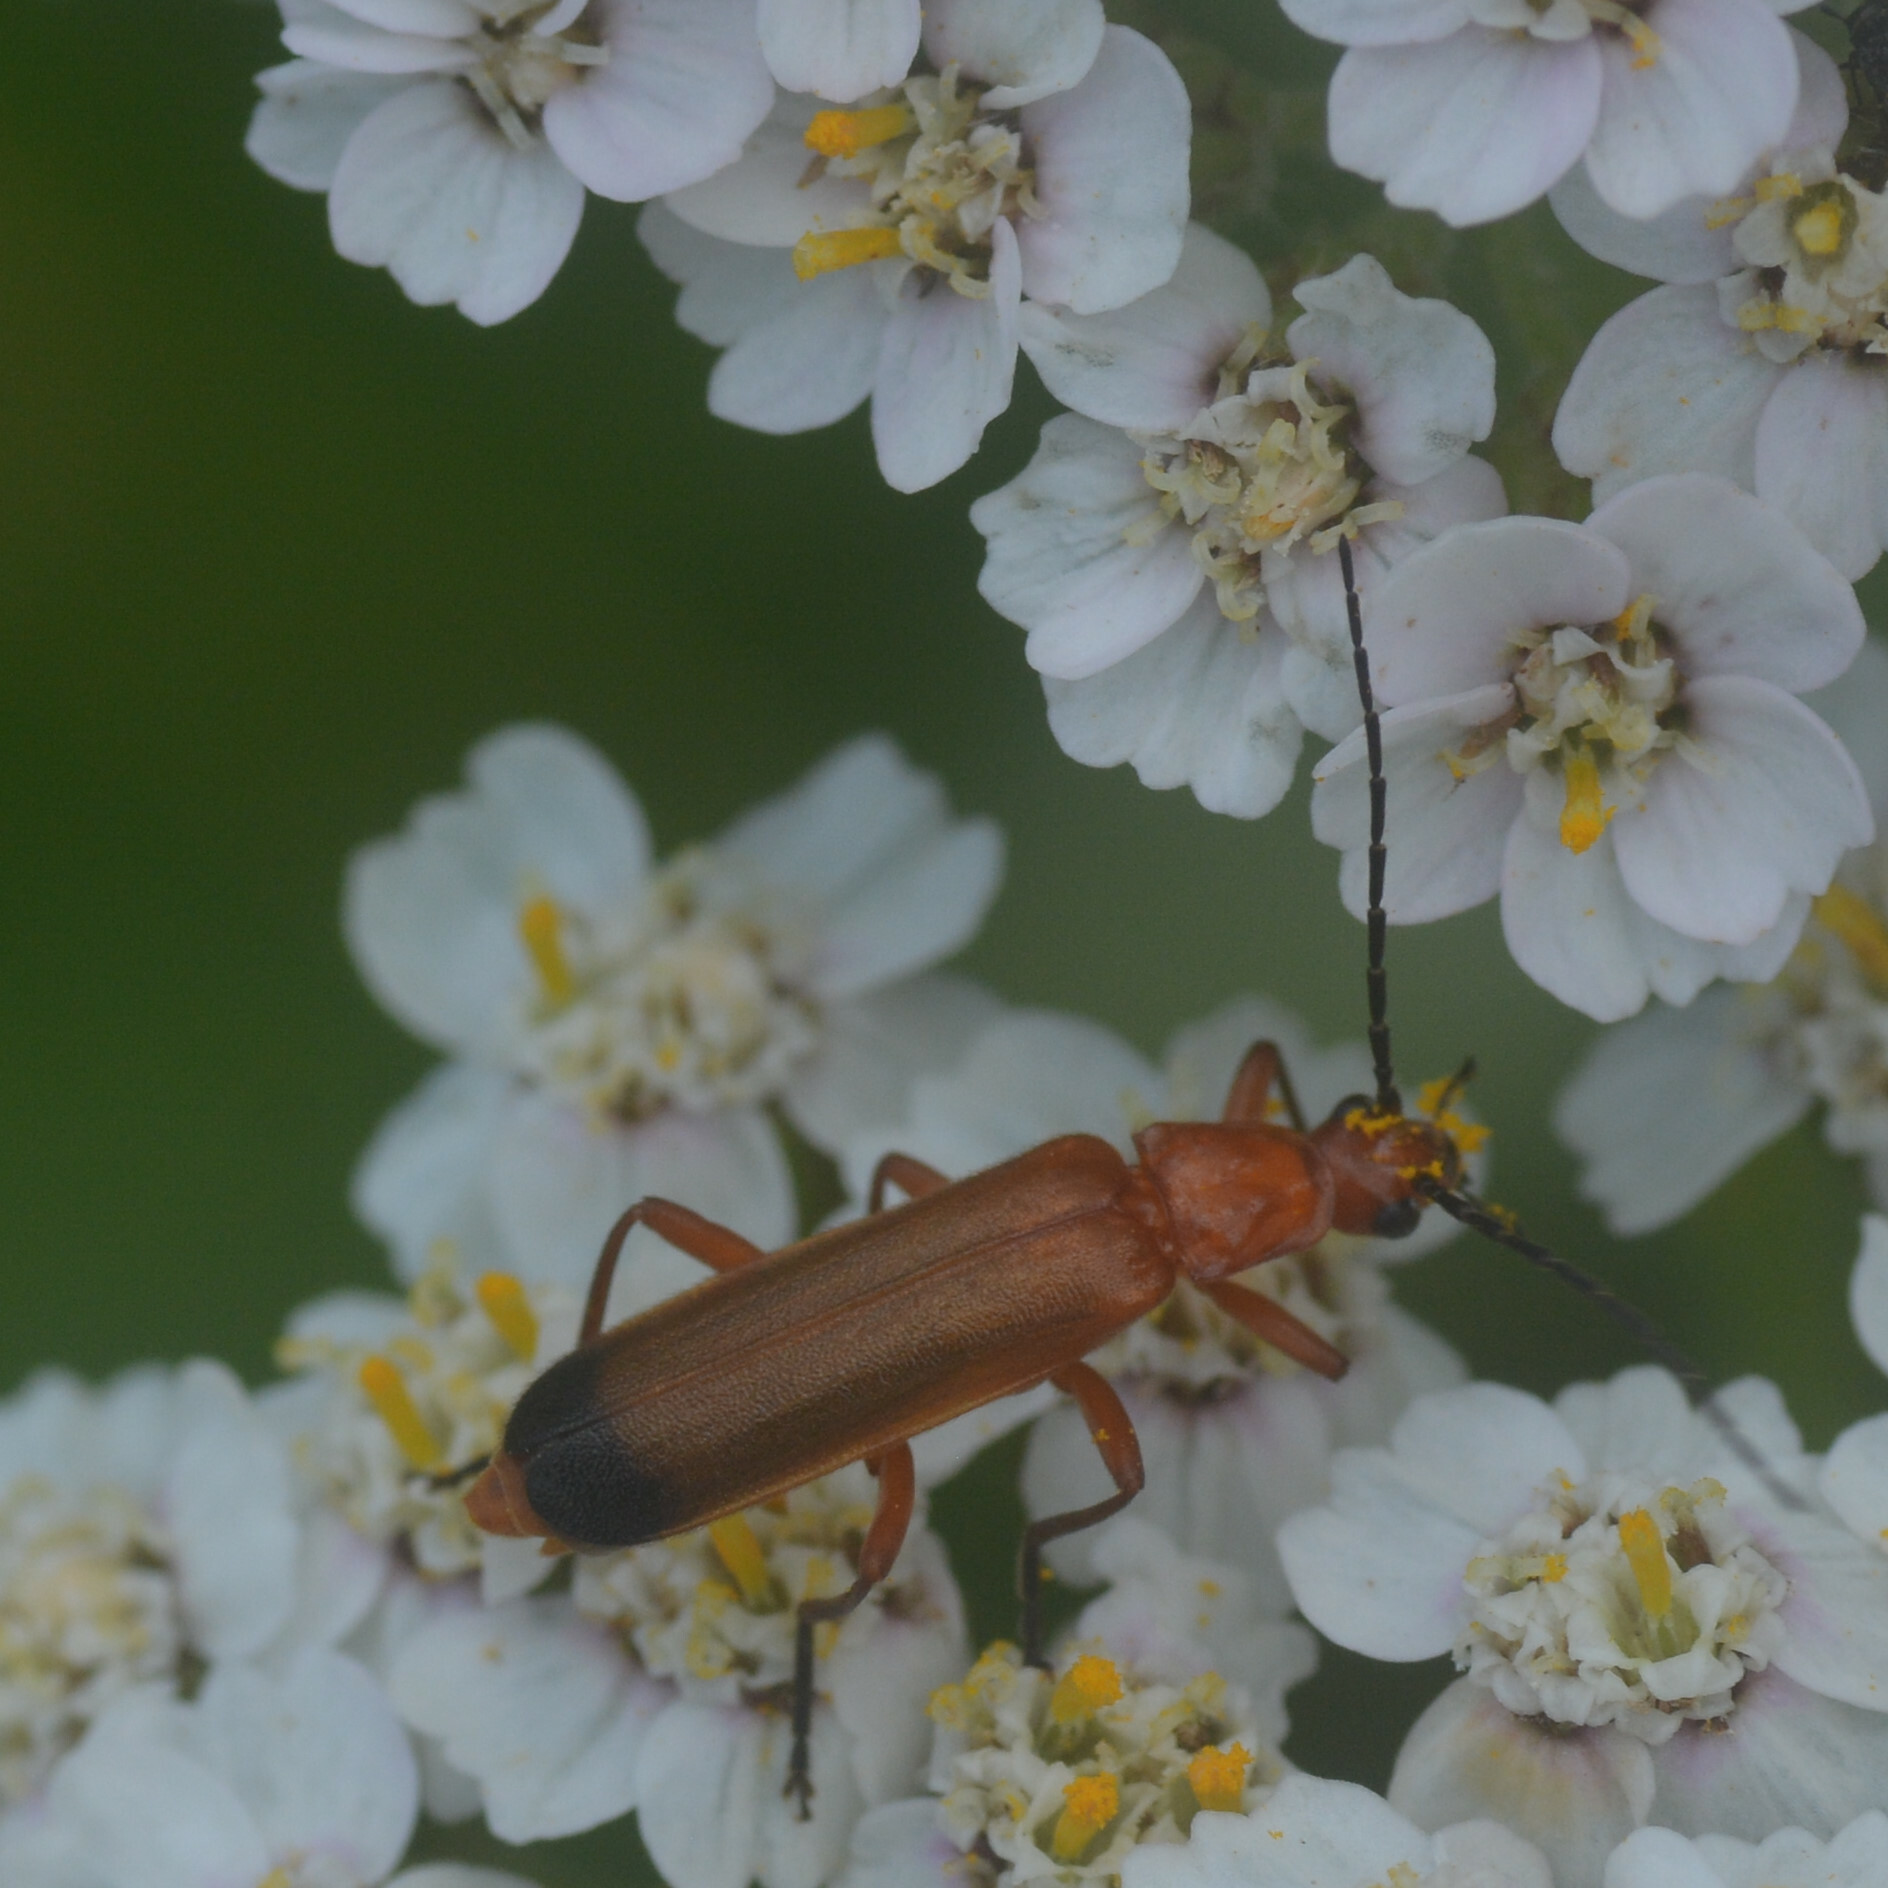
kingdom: Animalia
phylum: Arthropoda
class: Insecta
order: Coleoptera
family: Cantharidae
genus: Rhagonycha
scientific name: Rhagonycha fulva
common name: Common red soldier beetle
